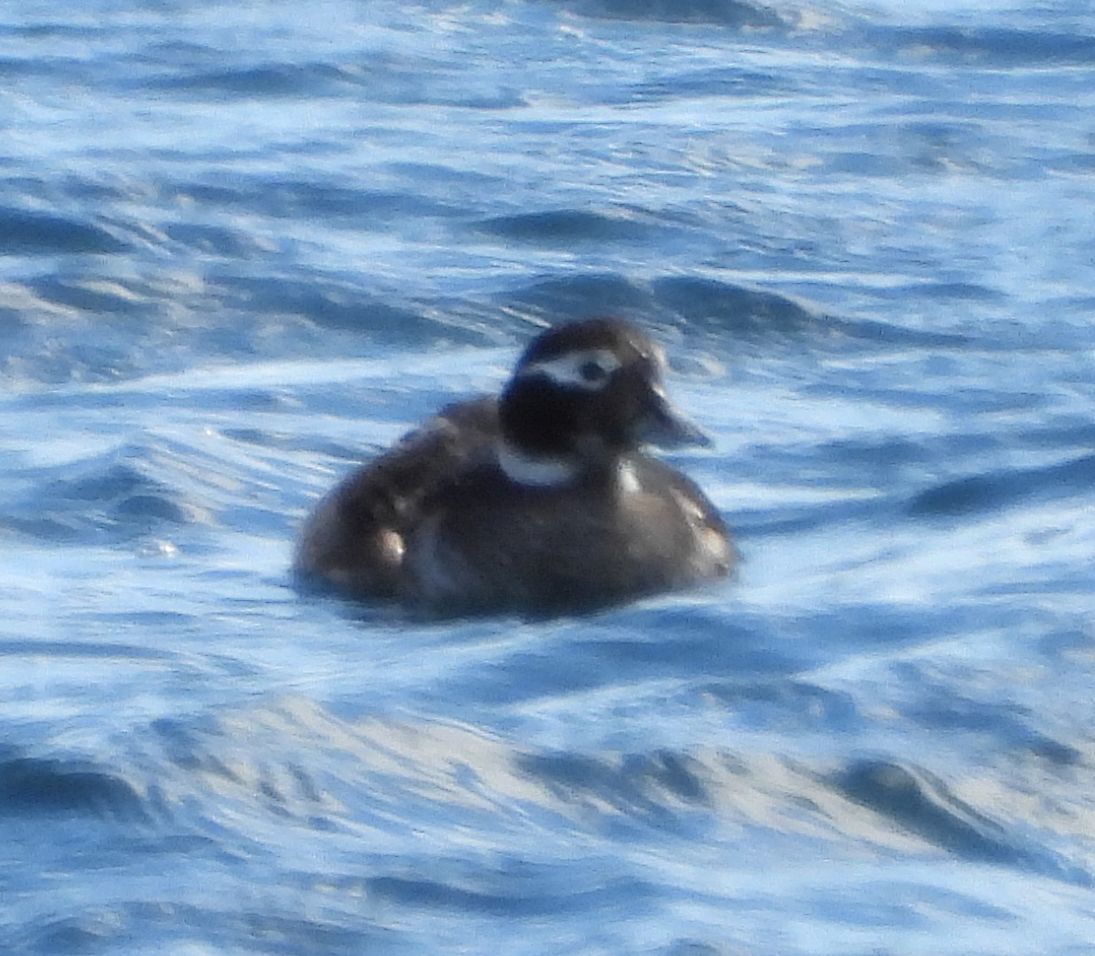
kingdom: Animalia
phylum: Chordata
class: Aves
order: Anseriformes
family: Anatidae
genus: Clangula
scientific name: Clangula hyemalis
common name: Long-tailed duck
